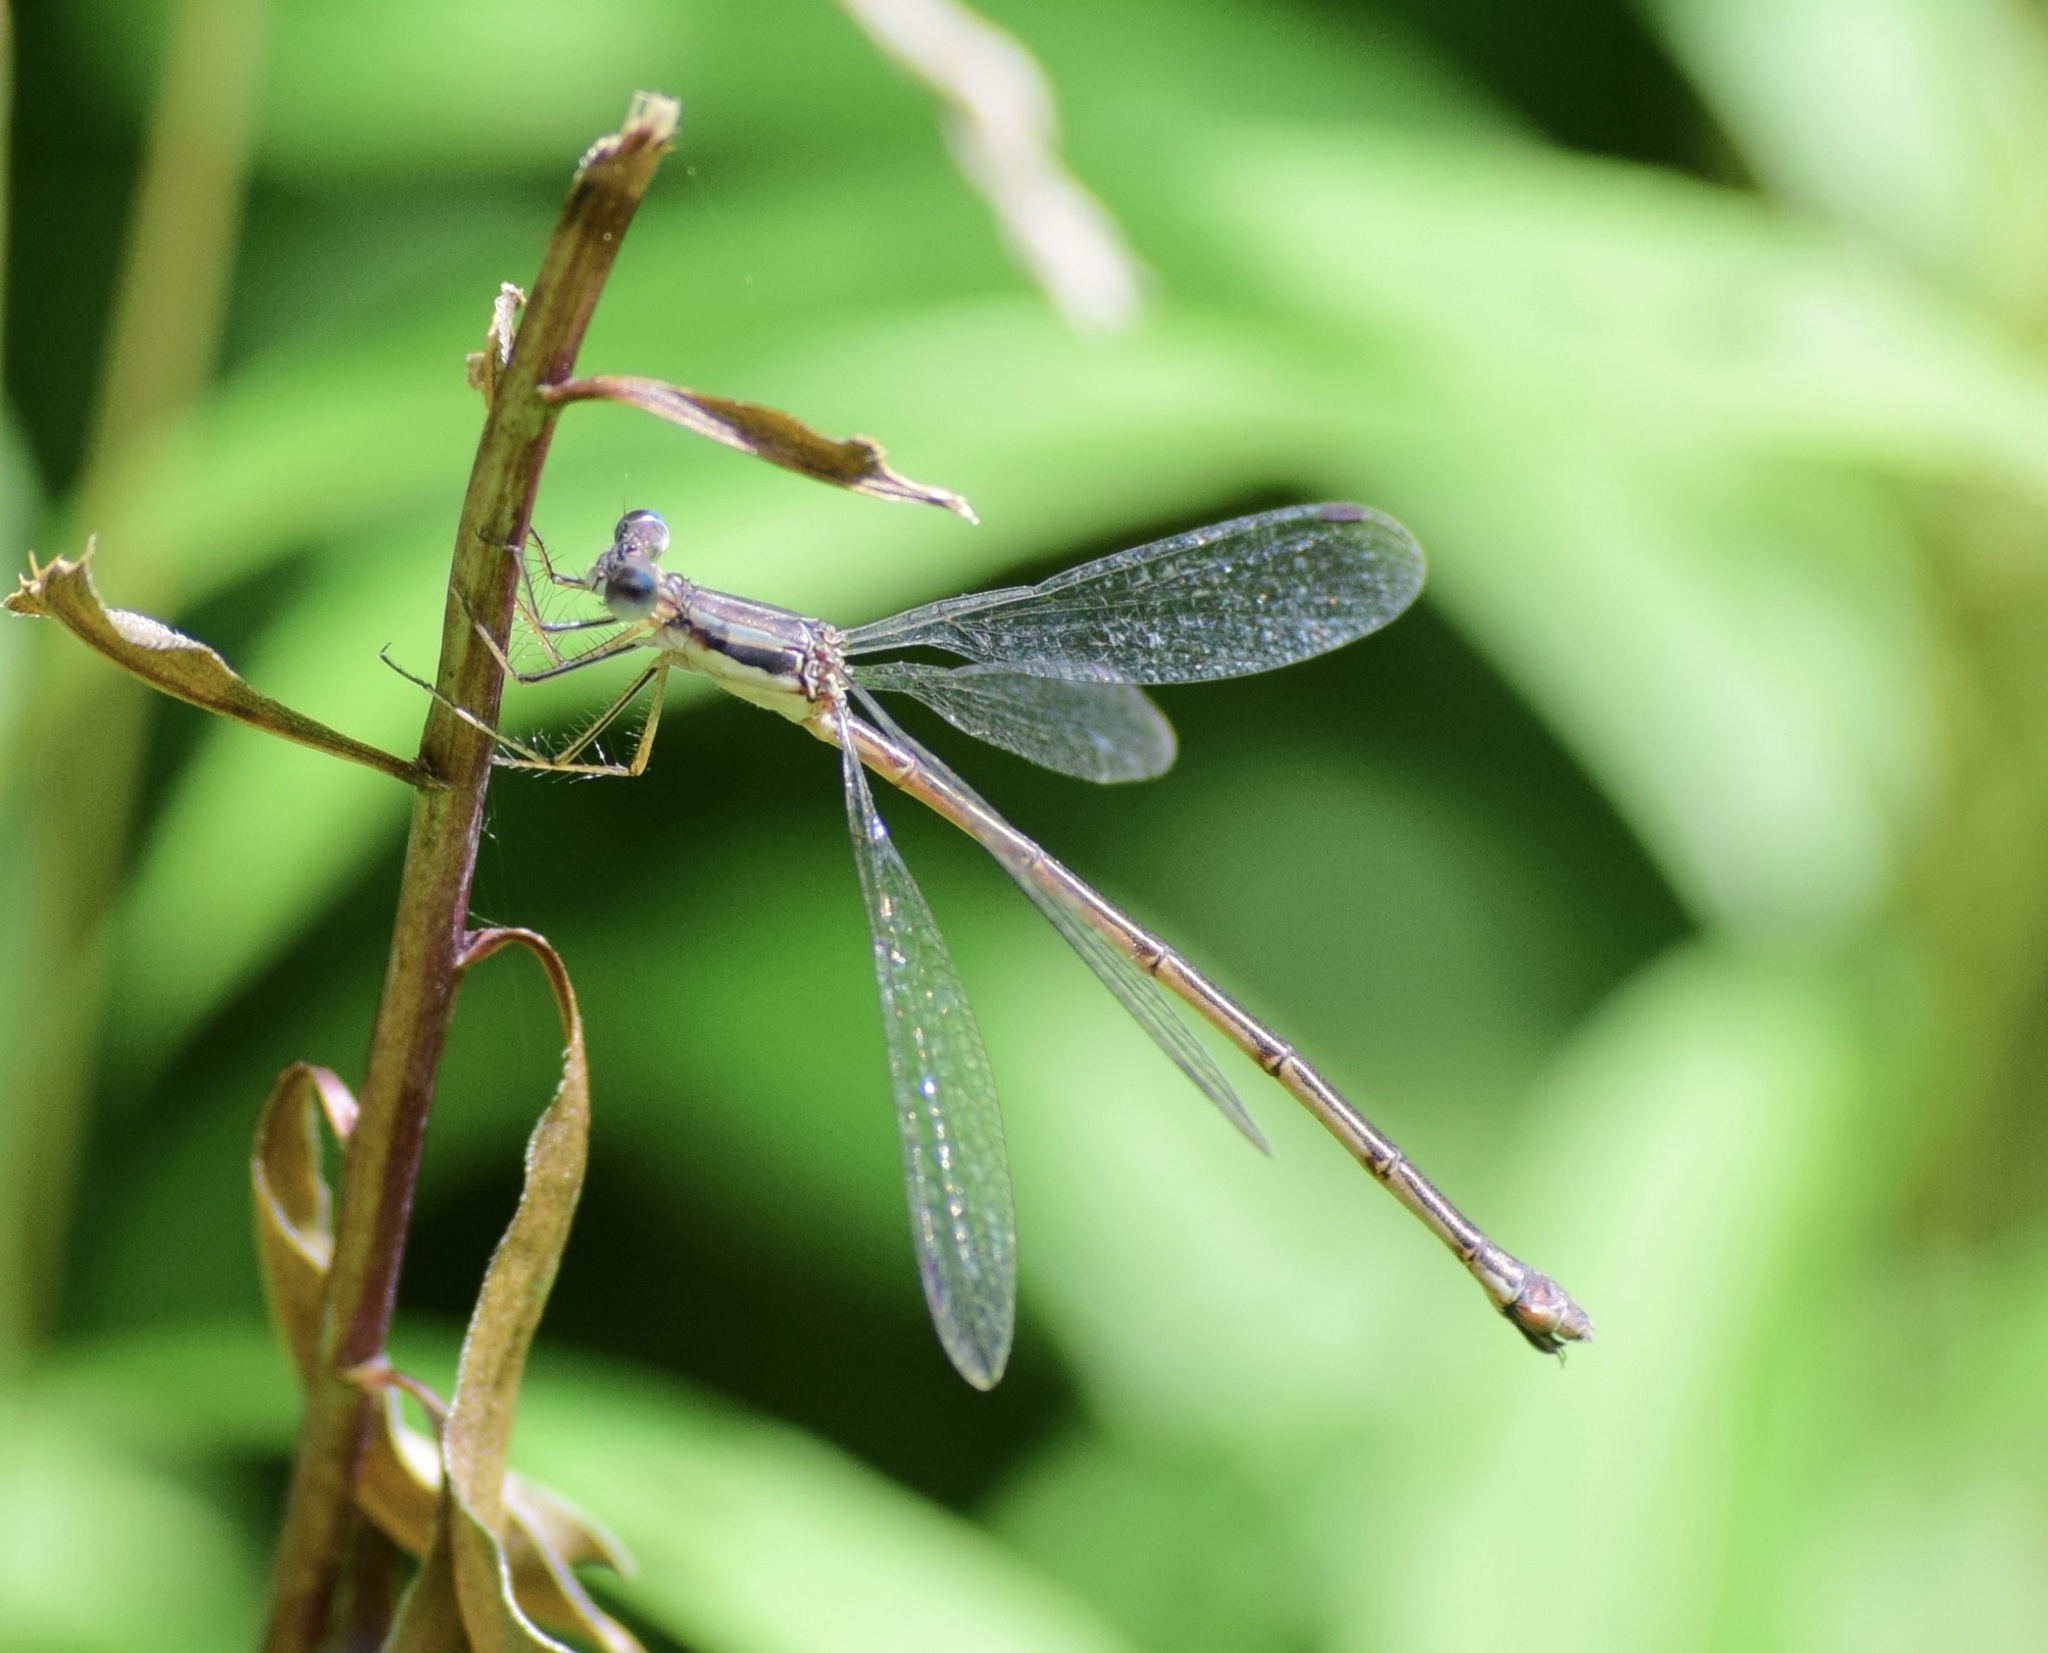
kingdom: Animalia
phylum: Arthropoda
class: Insecta
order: Odonata
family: Lestidae
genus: Lestes
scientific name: Lestes rectangularis
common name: Slender spreadwing
